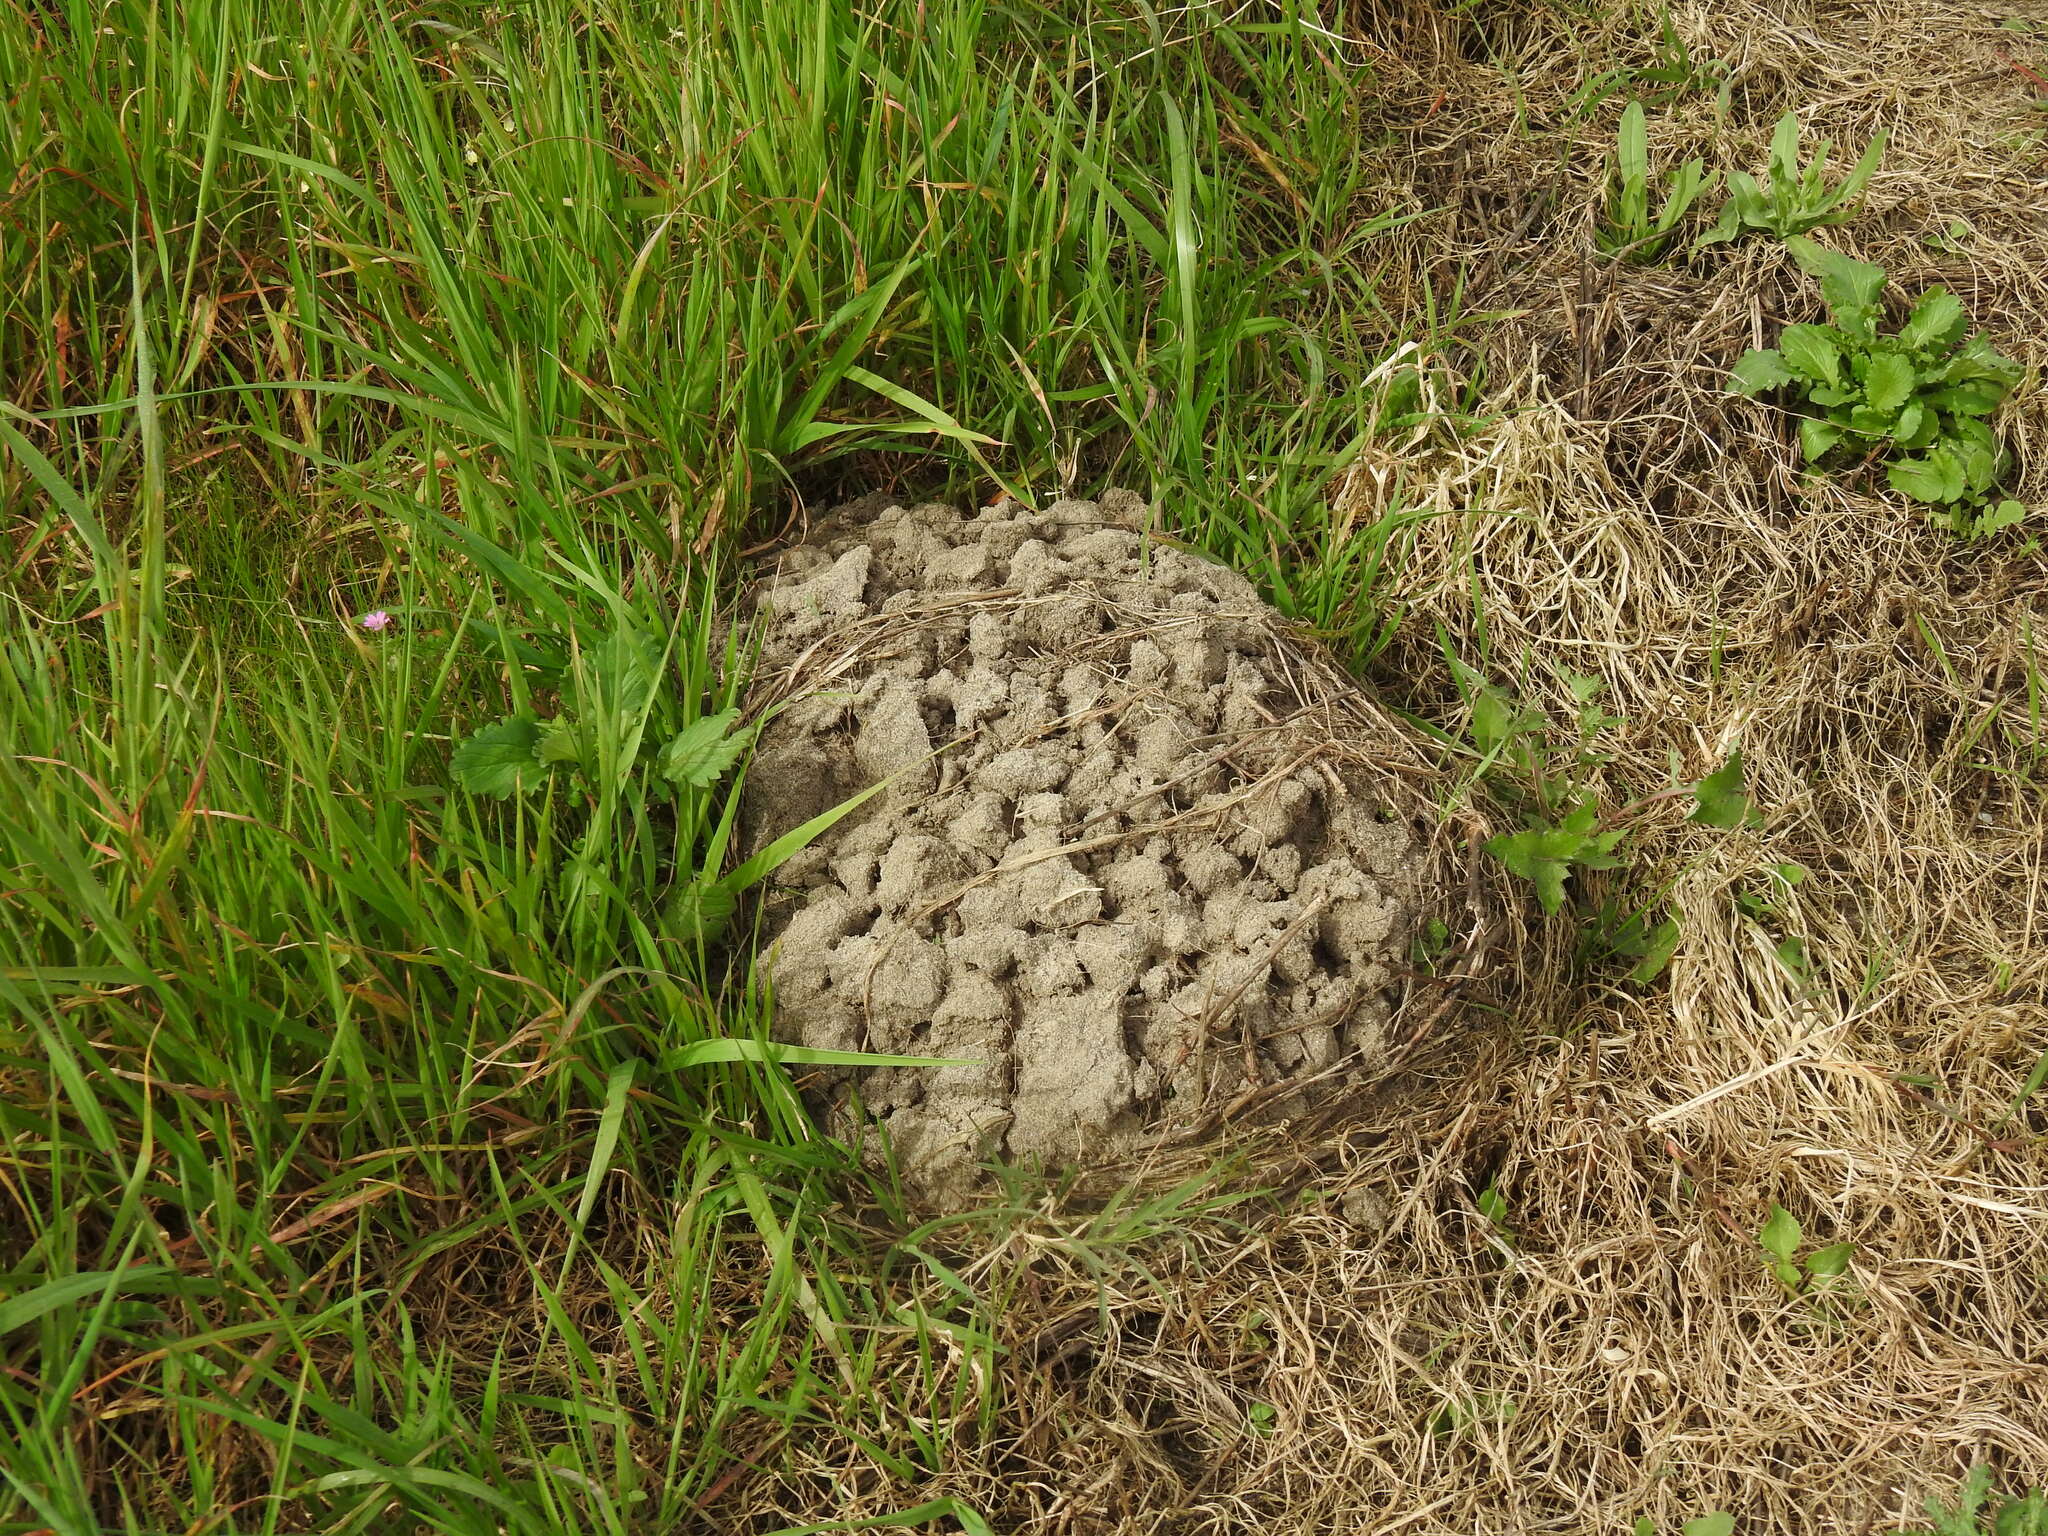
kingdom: Animalia
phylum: Chordata
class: Mammalia
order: Soricomorpha
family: Talpidae
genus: Talpa
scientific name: Talpa occidentalis
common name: Iberian mole
